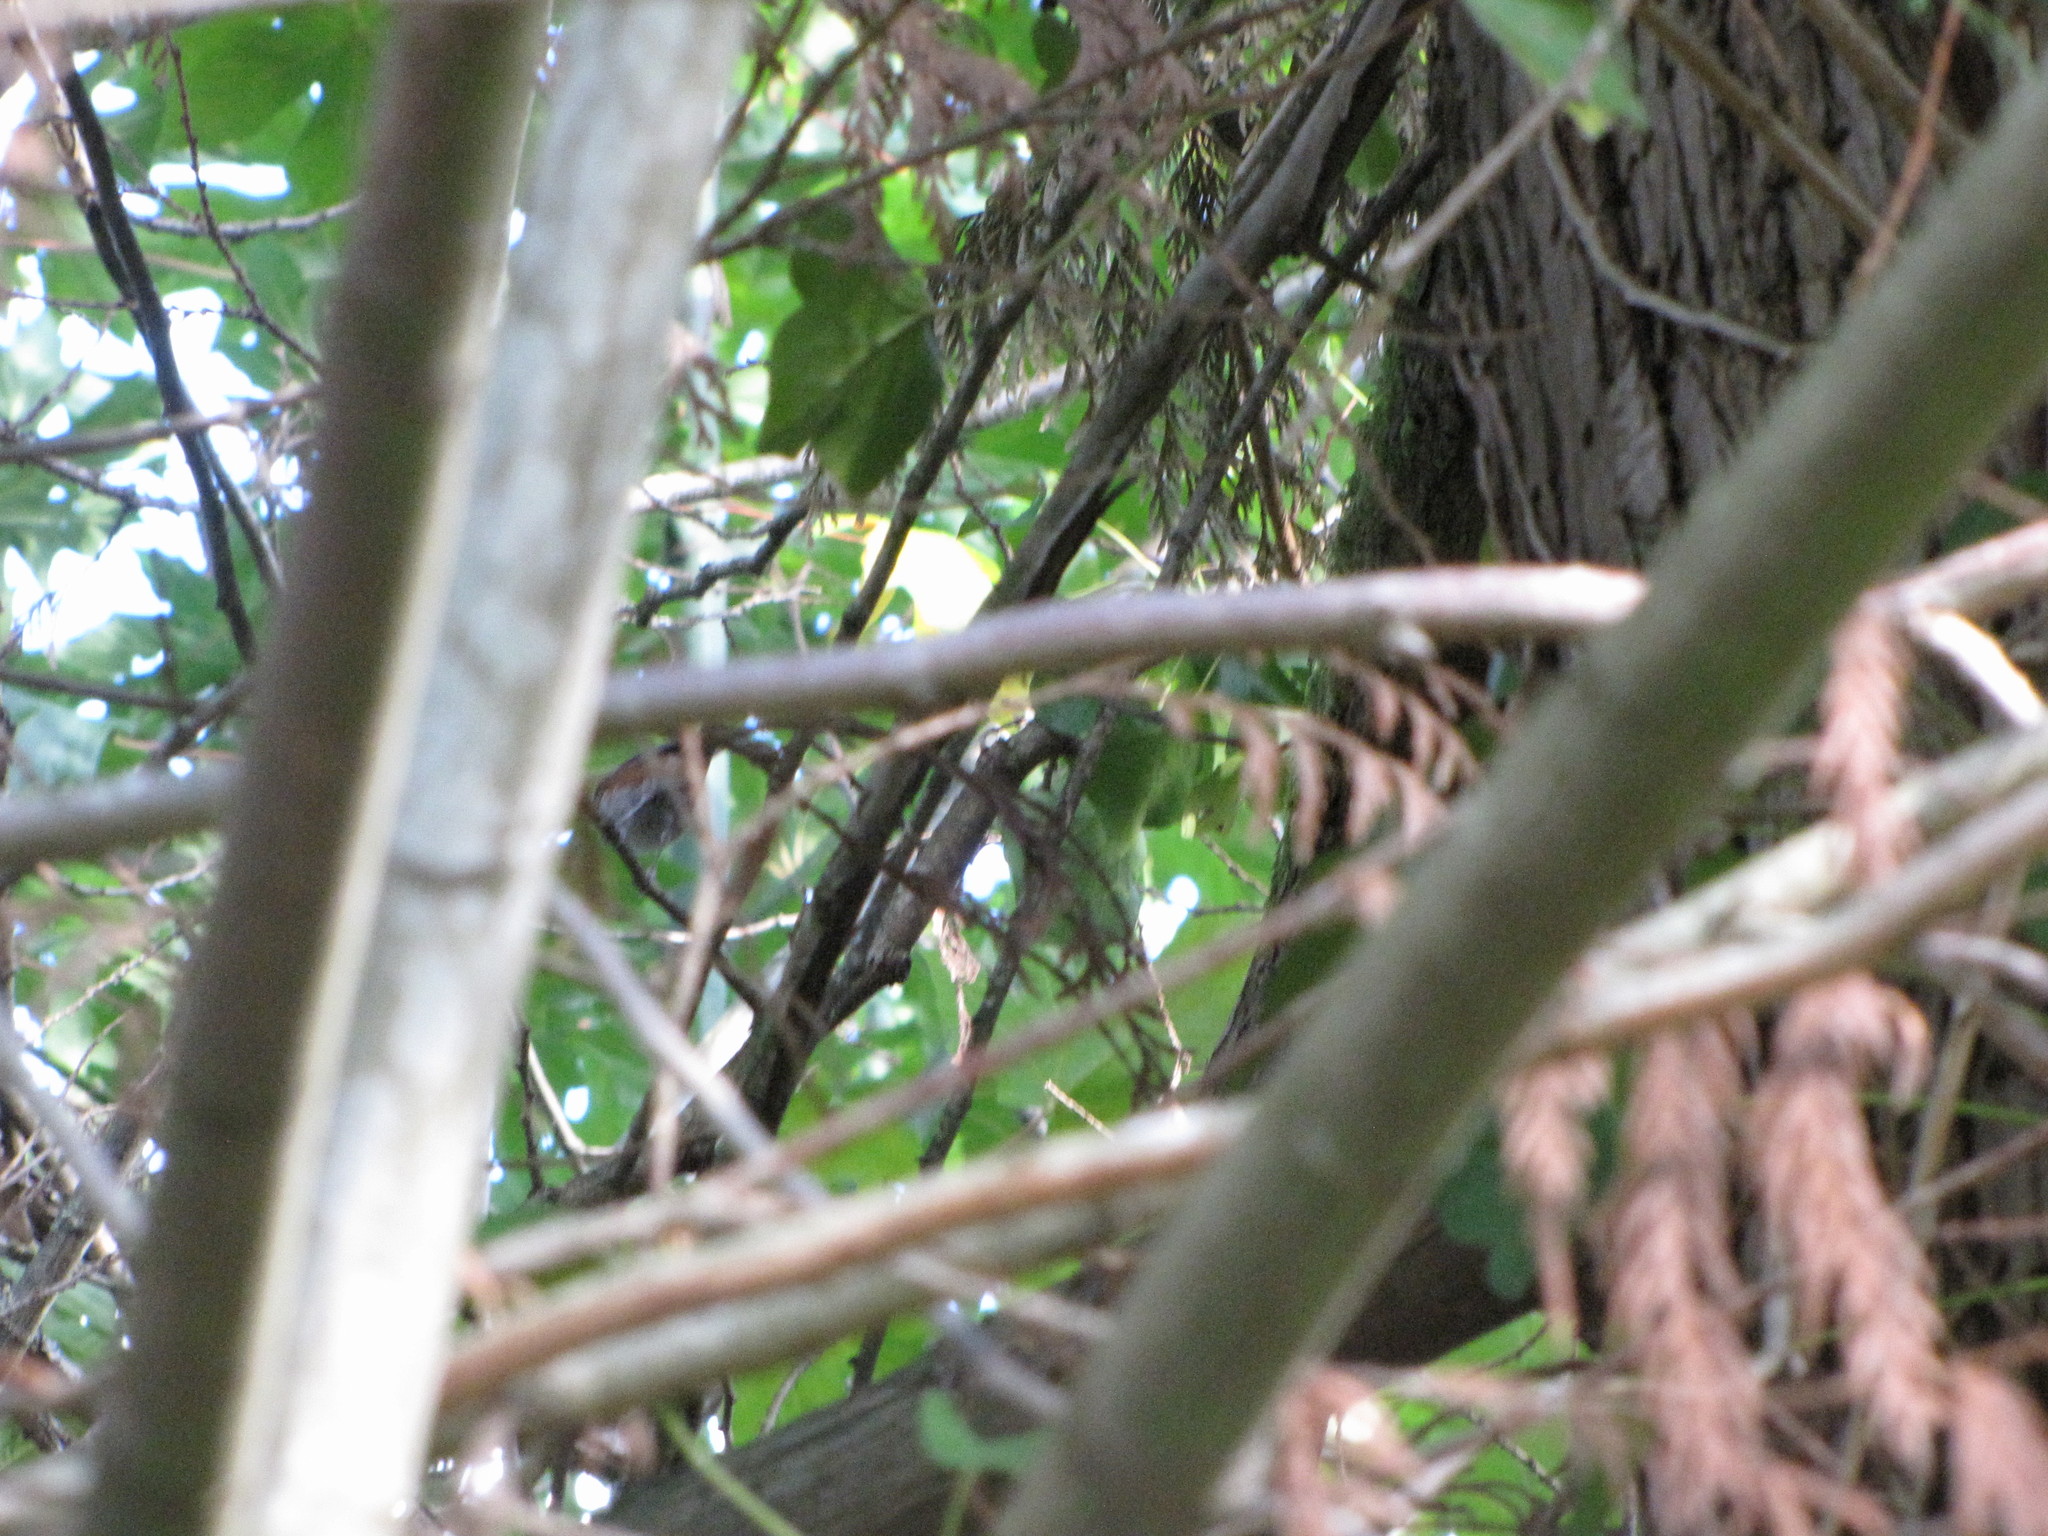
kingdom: Animalia
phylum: Chordata
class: Aves
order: Passeriformes
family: Paridae
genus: Poecile
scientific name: Poecile rufescens
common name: Chestnut-backed chickadee
